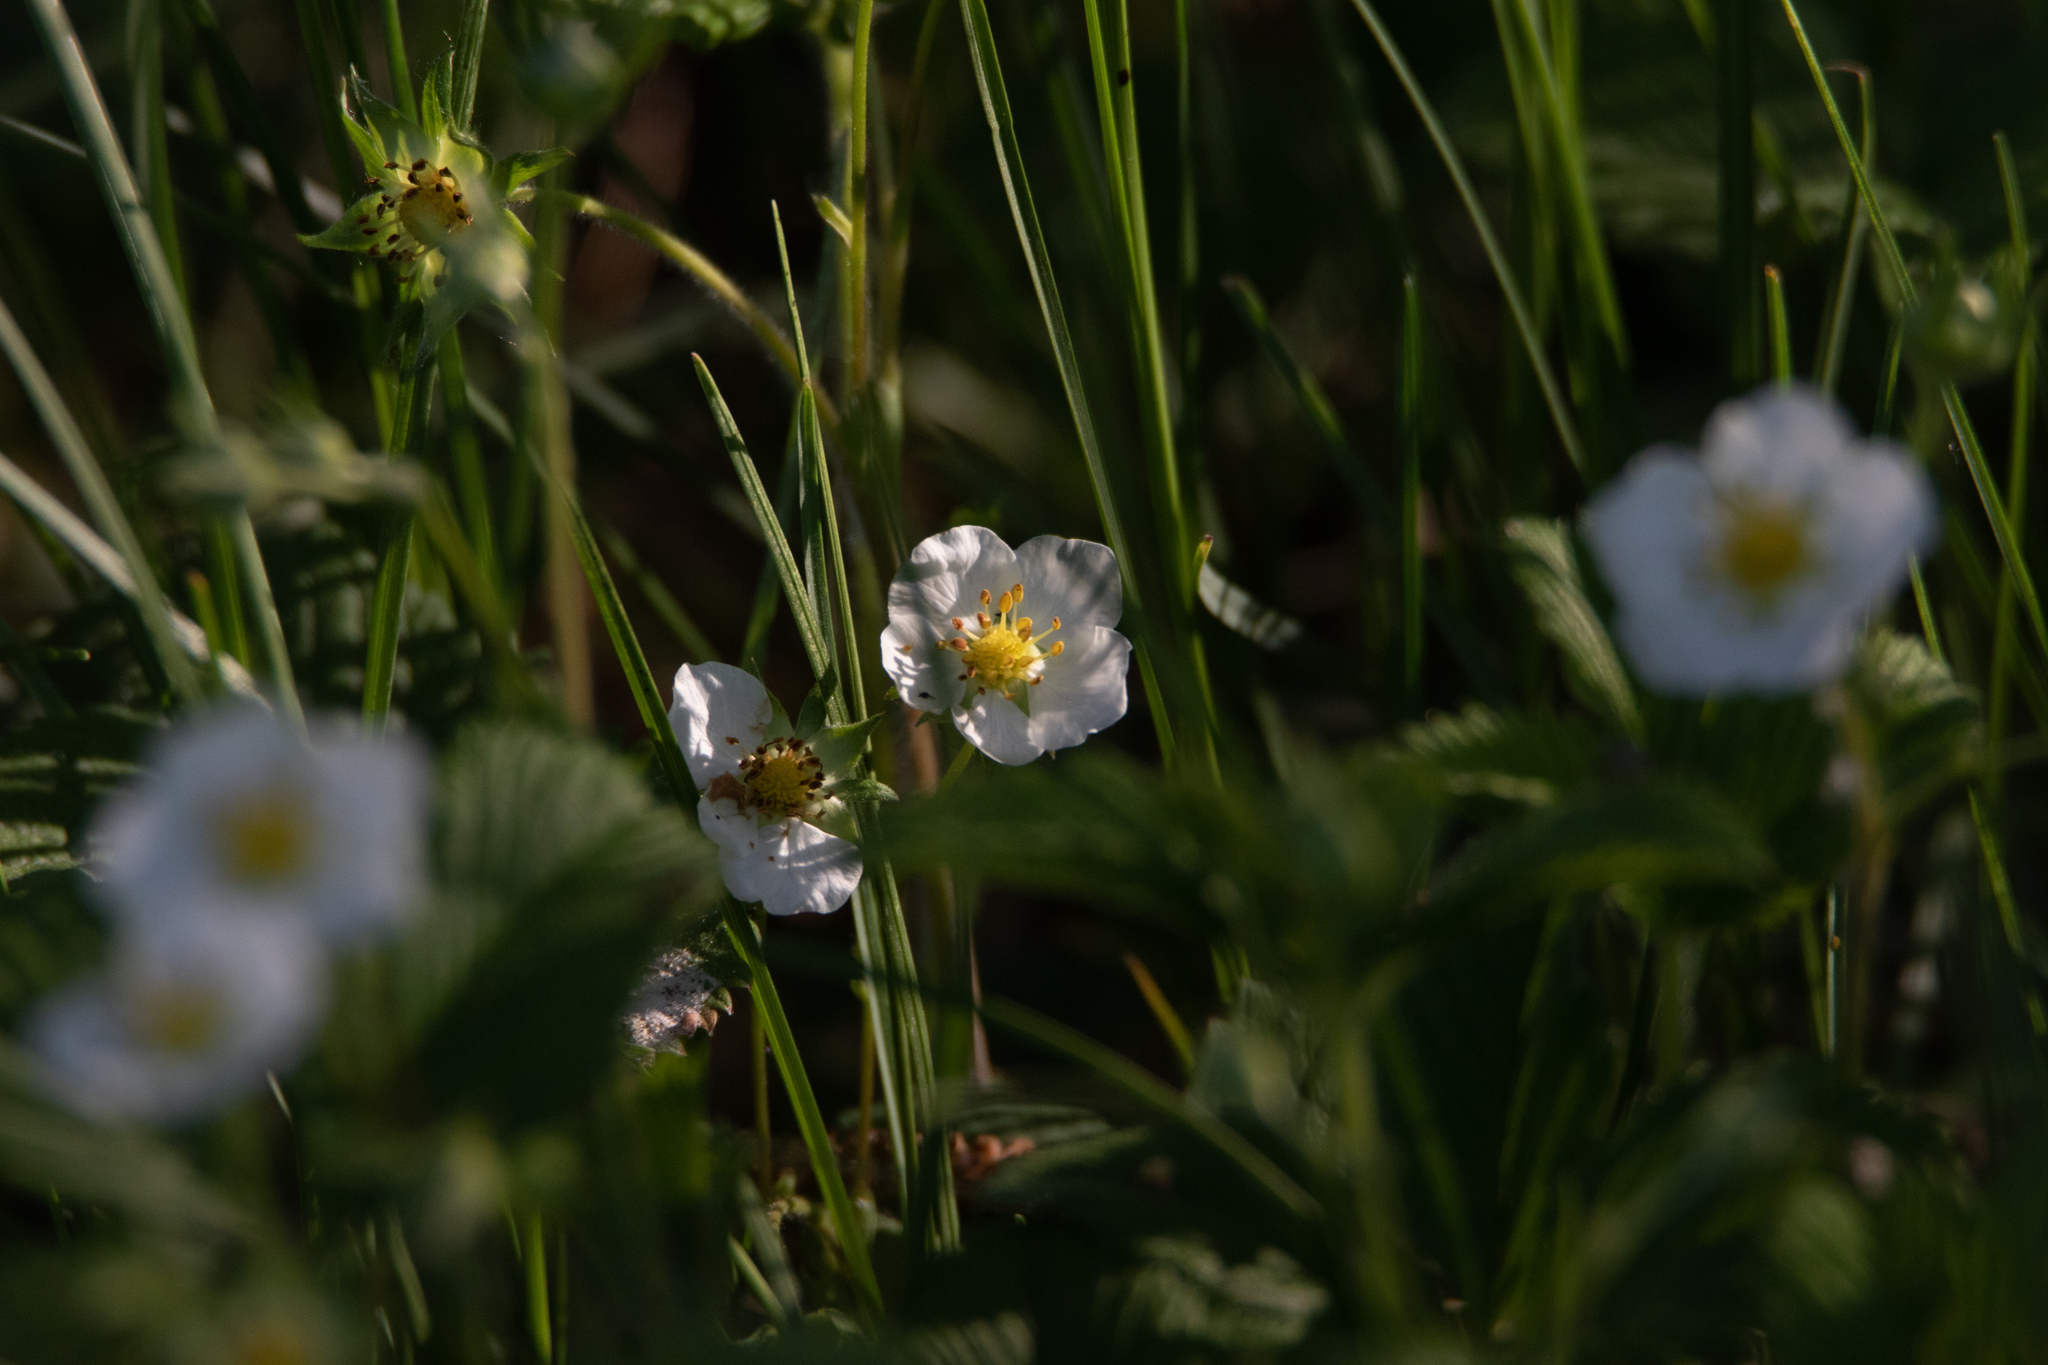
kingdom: Plantae
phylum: Tracheophyta
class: Magnoliopsida
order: Rosales
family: Rosaceae
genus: Fragaria
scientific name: Fragaria viridis
